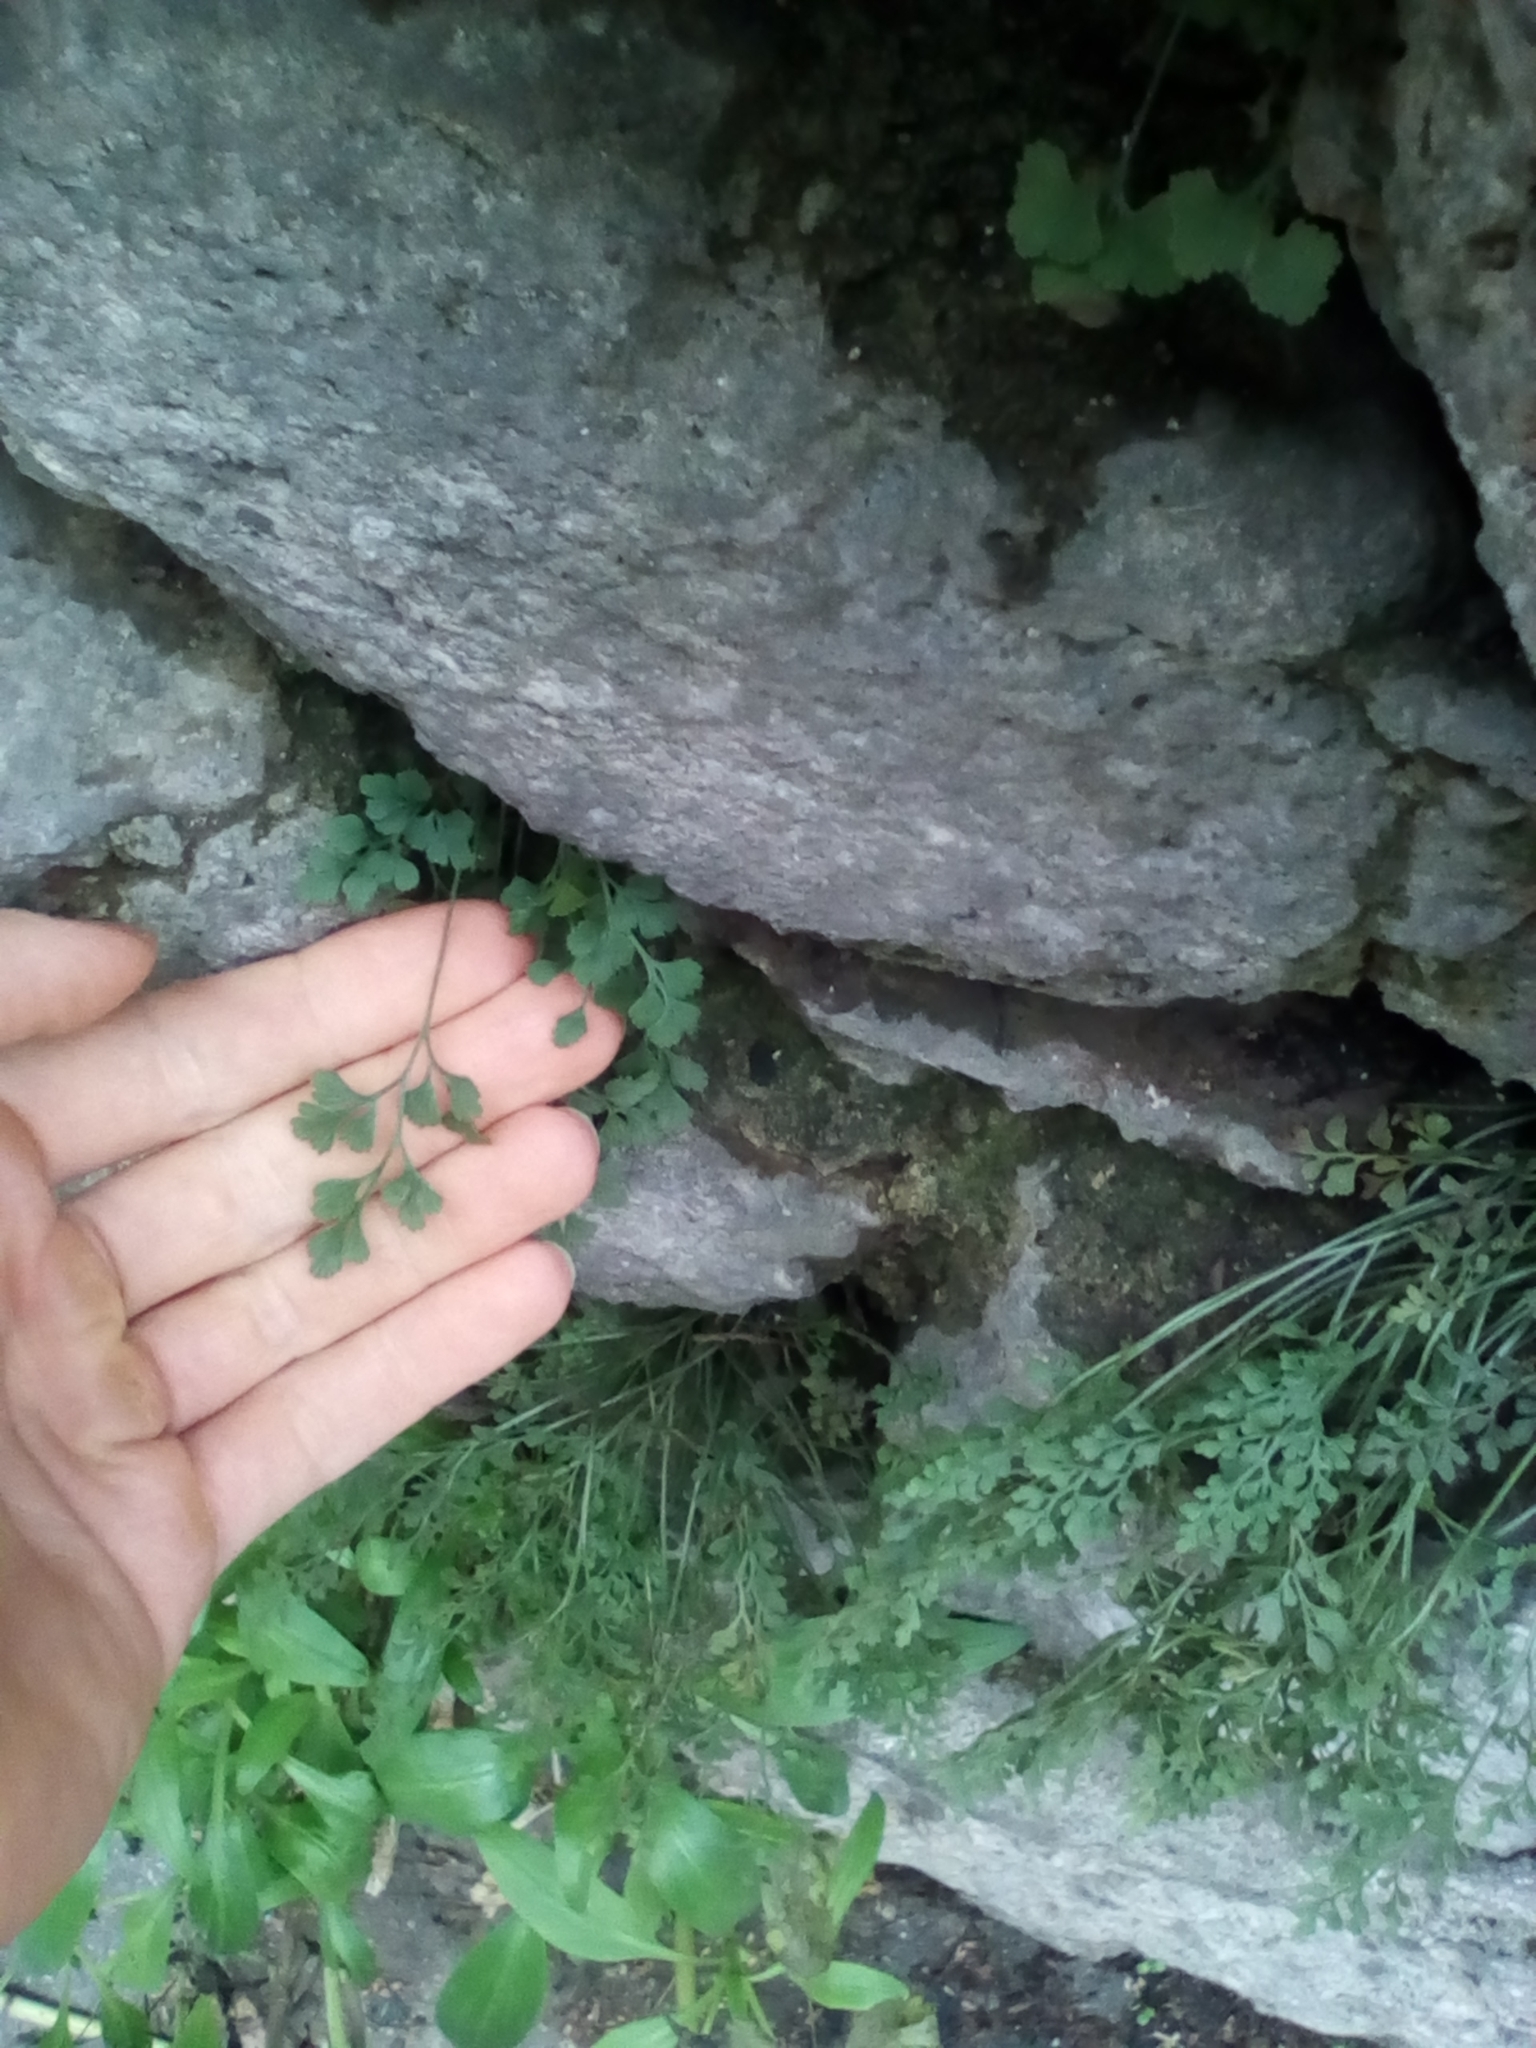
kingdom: Plantae
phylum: Tracheophyta
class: Polypodiopsida
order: Polypodiales
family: Aspleniaceae
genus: Asplenium
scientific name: Asplenium ruta-muraria
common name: Wall-rue
